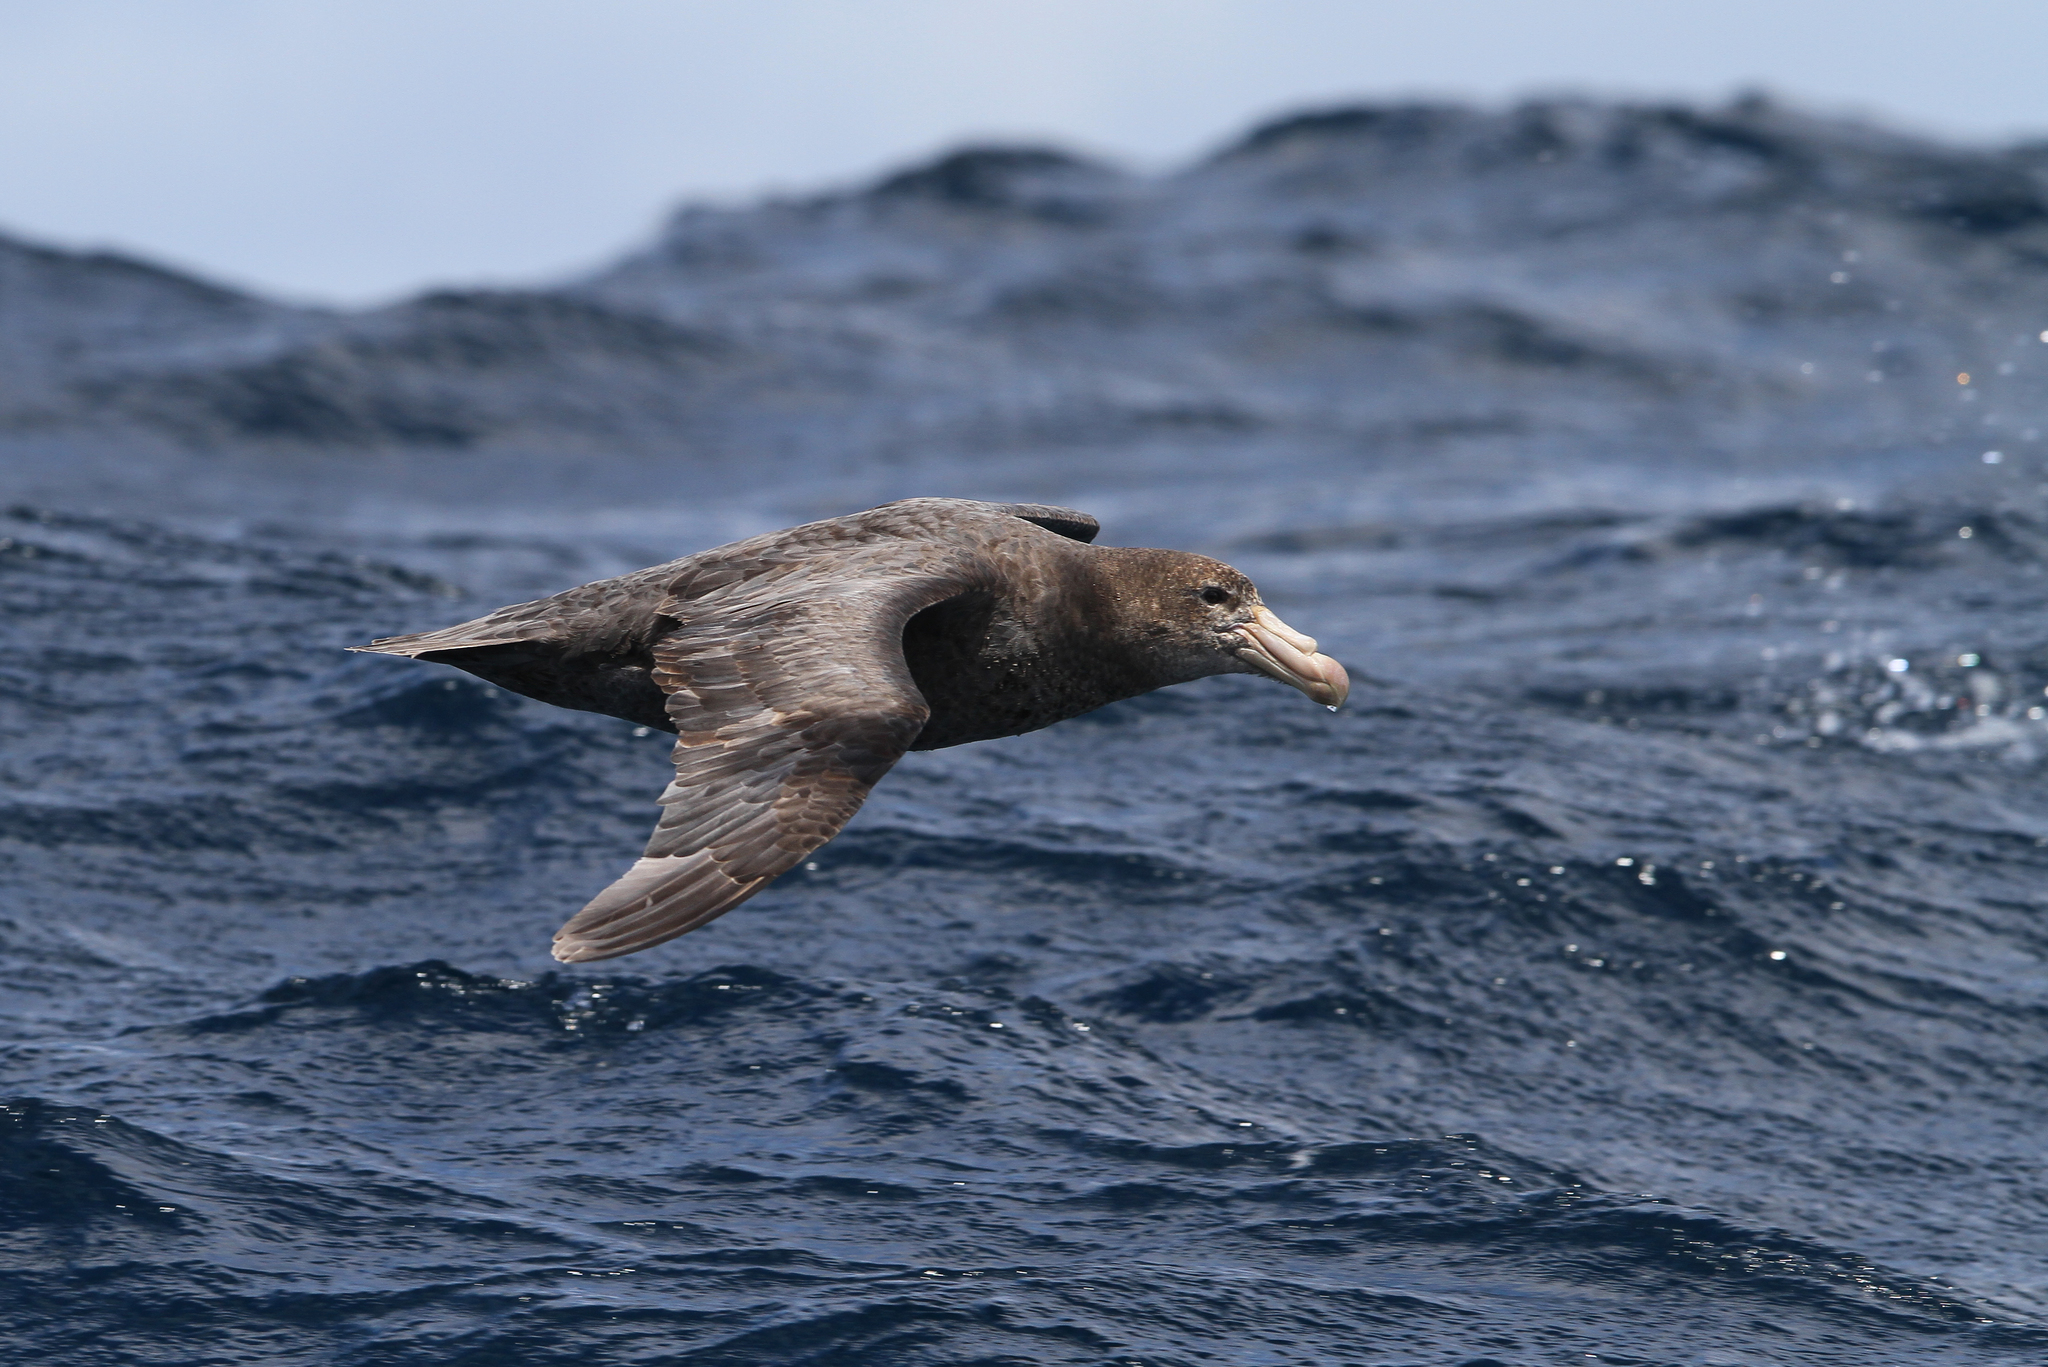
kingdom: Animalia
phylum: Chordata
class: Aves
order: Procellariiformes
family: Procellariidae
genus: Macronectes
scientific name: Macronectes halli
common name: Northern giant petrel
